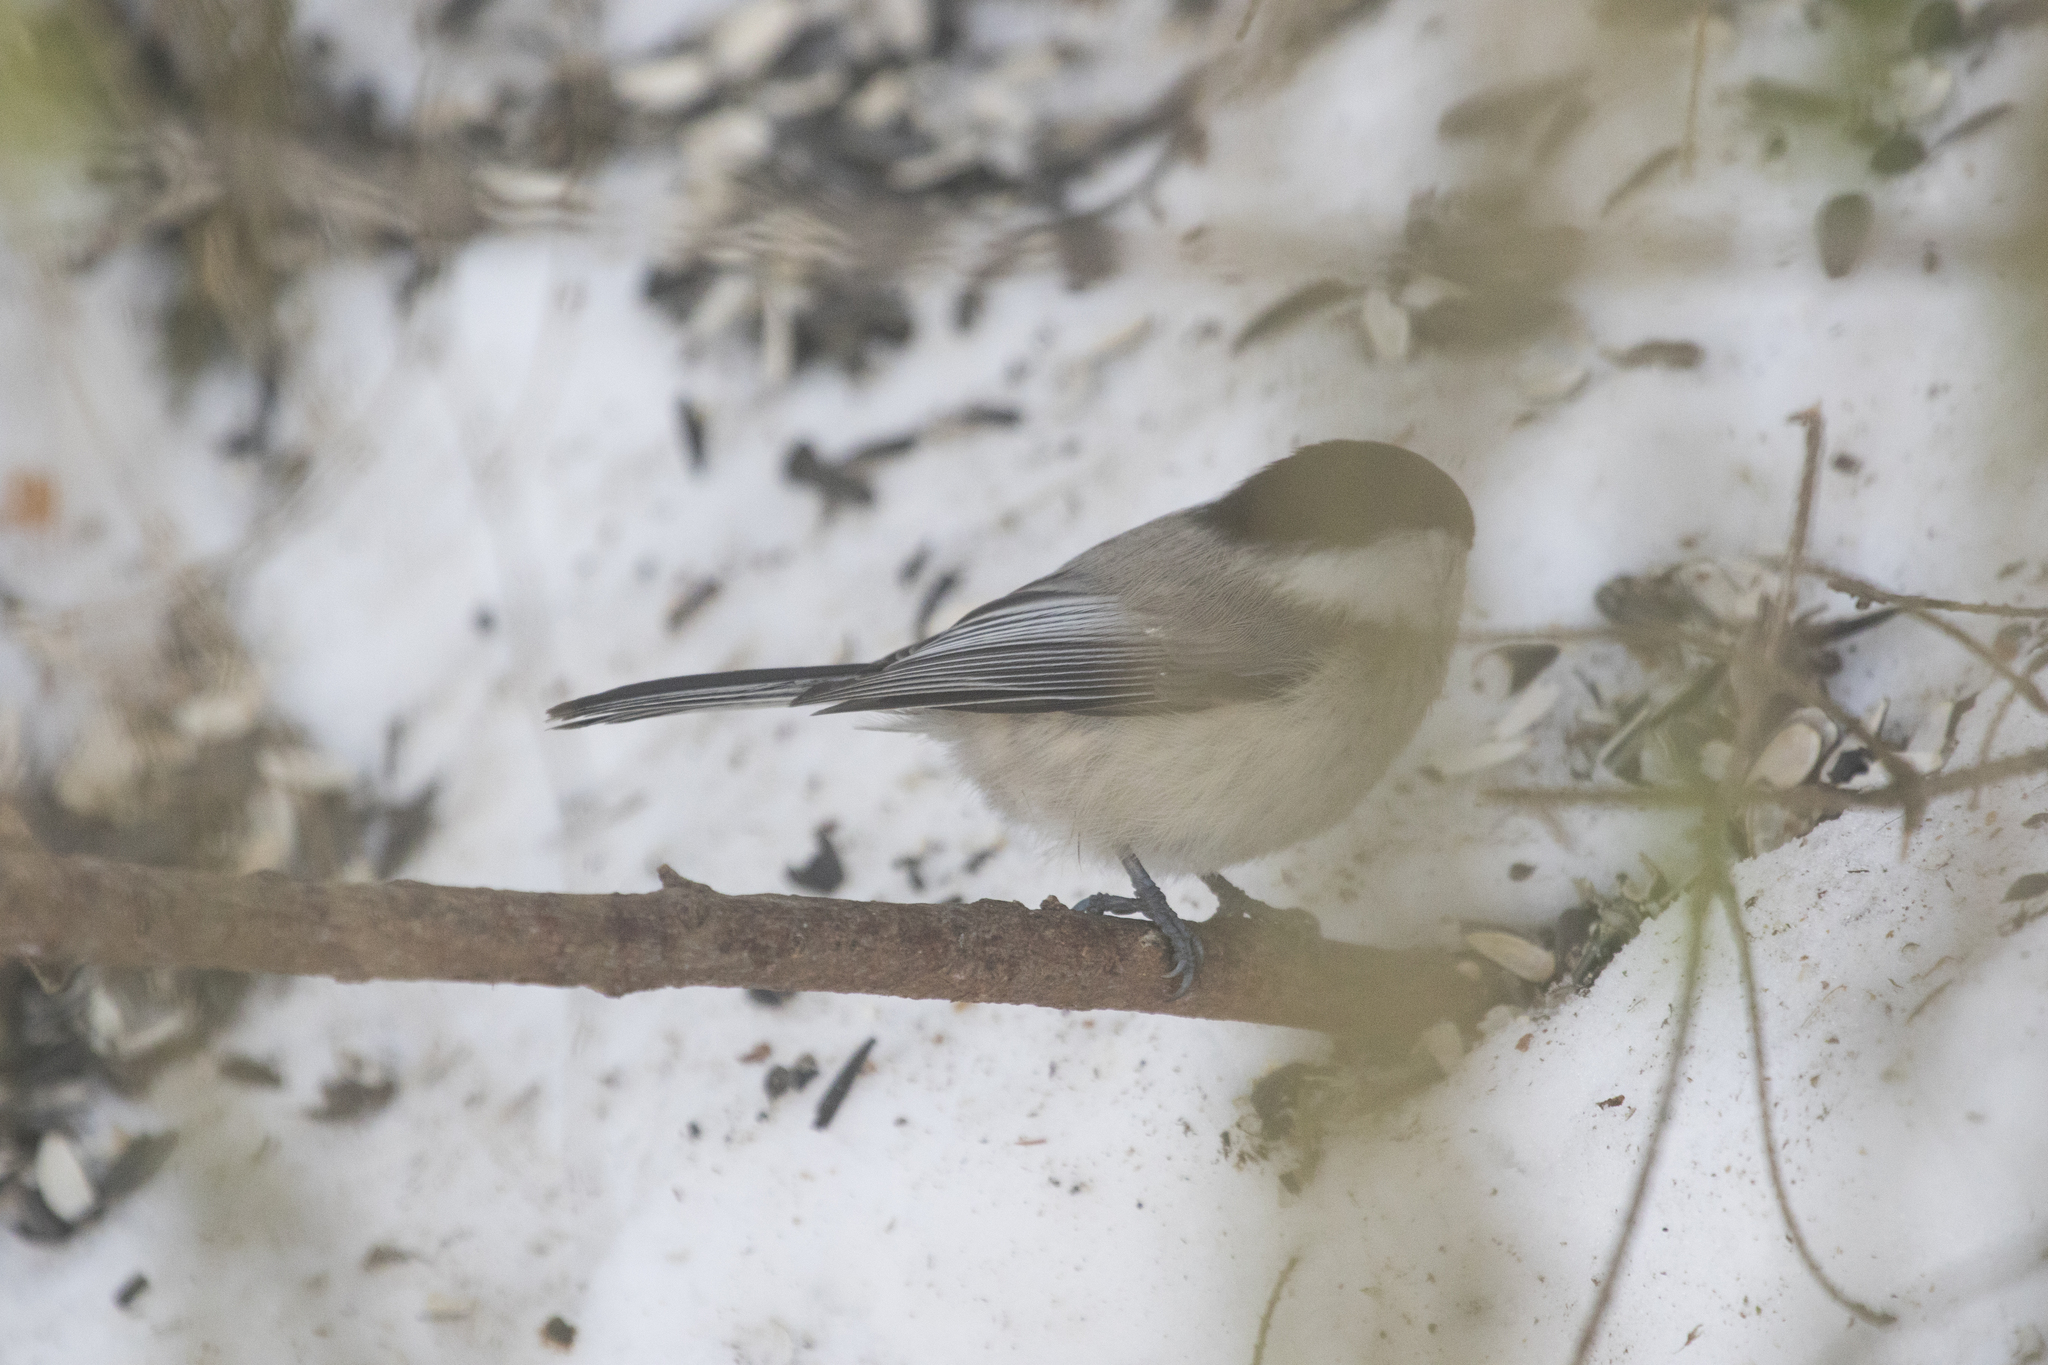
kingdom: Animalia
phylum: Chordata
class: Aves
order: Passeriformes
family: Paridae
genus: Poecile
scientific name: Poecile montanus
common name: Willow tit
